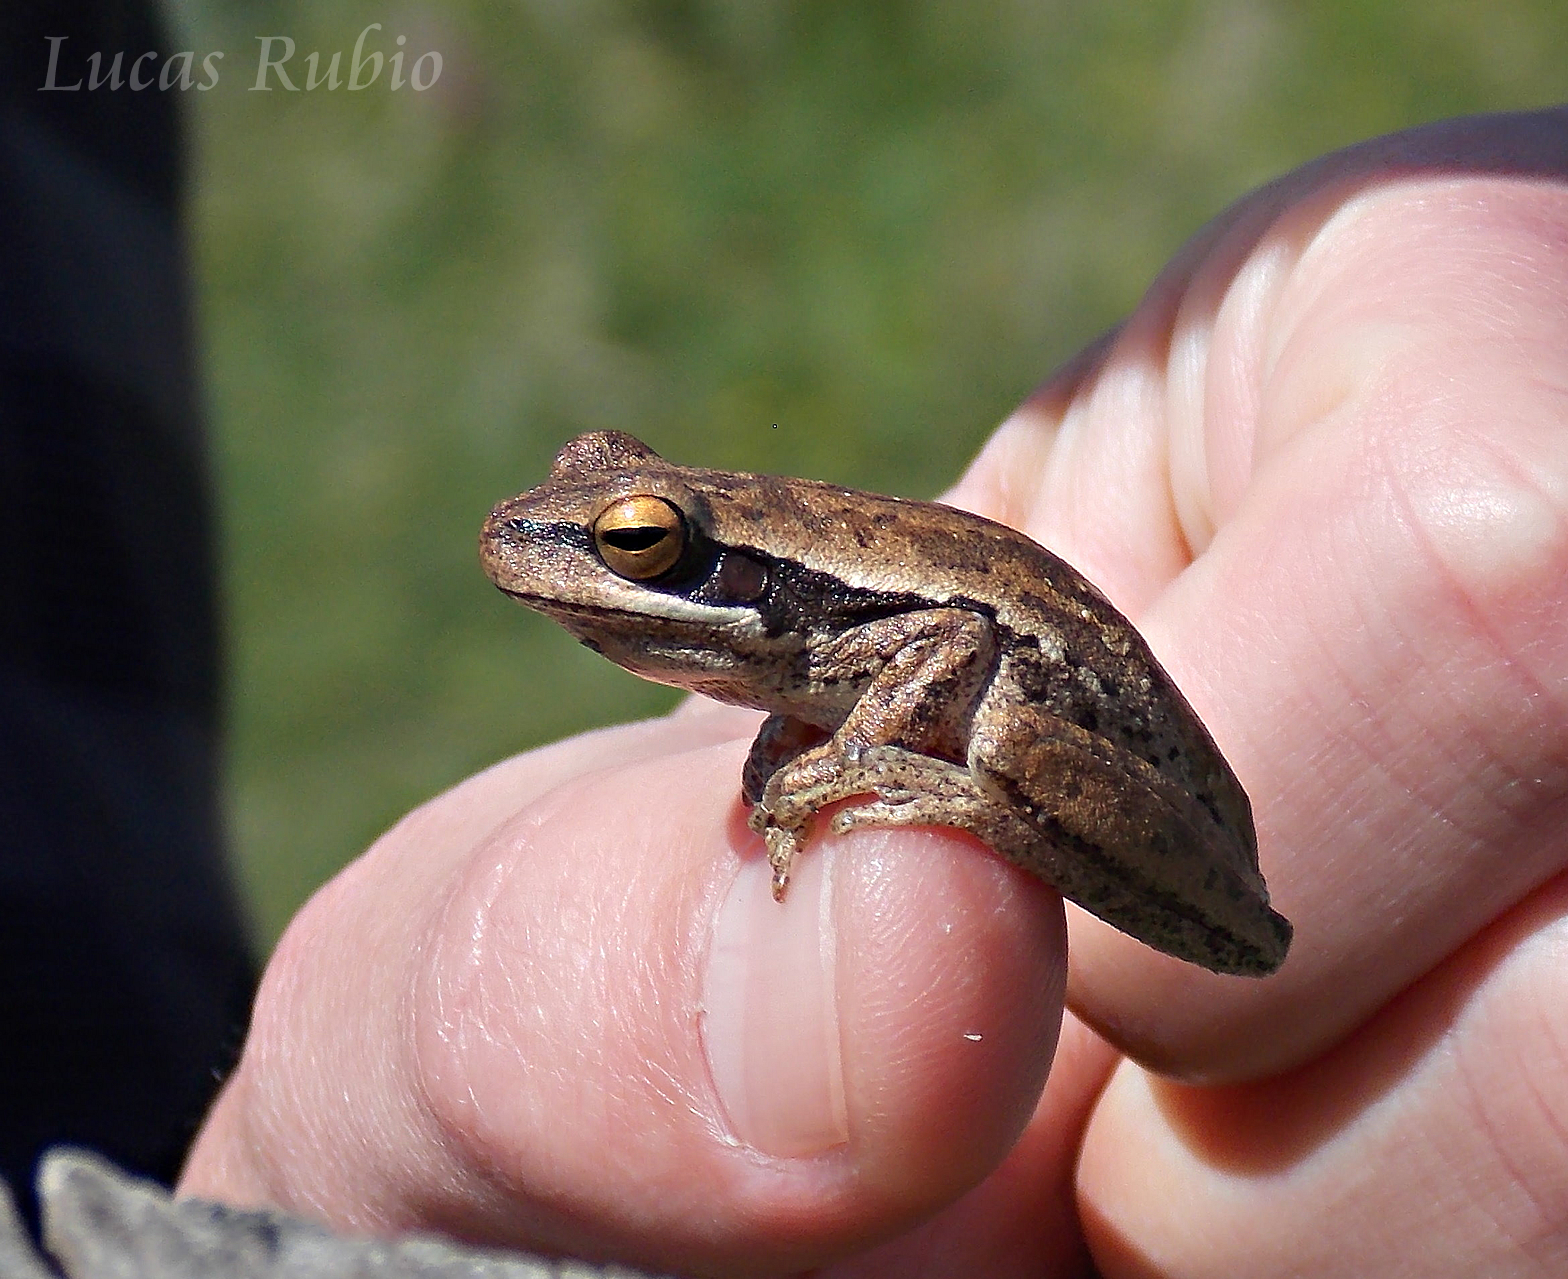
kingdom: Animalia
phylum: Chordata
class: Amphibia
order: Anura
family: Hylidae
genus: Boana
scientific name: Boana pulchella
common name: Montevideo treefrog
